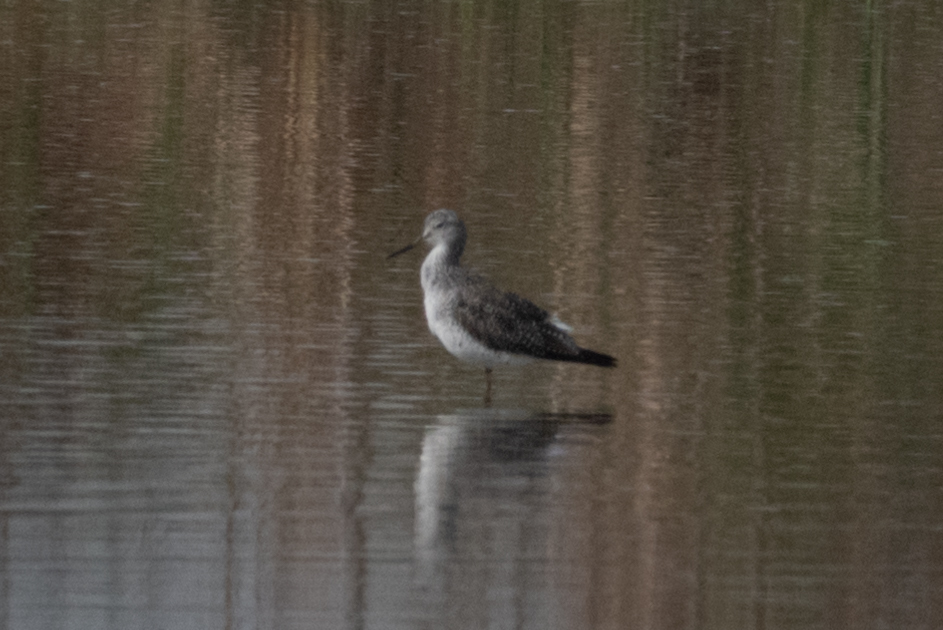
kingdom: Animalia
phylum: Chordata
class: Aves
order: Charadriiformes
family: Scolopacidae
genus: Tringa
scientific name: Tringa melanoleuca
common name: Greater yellowlegs
